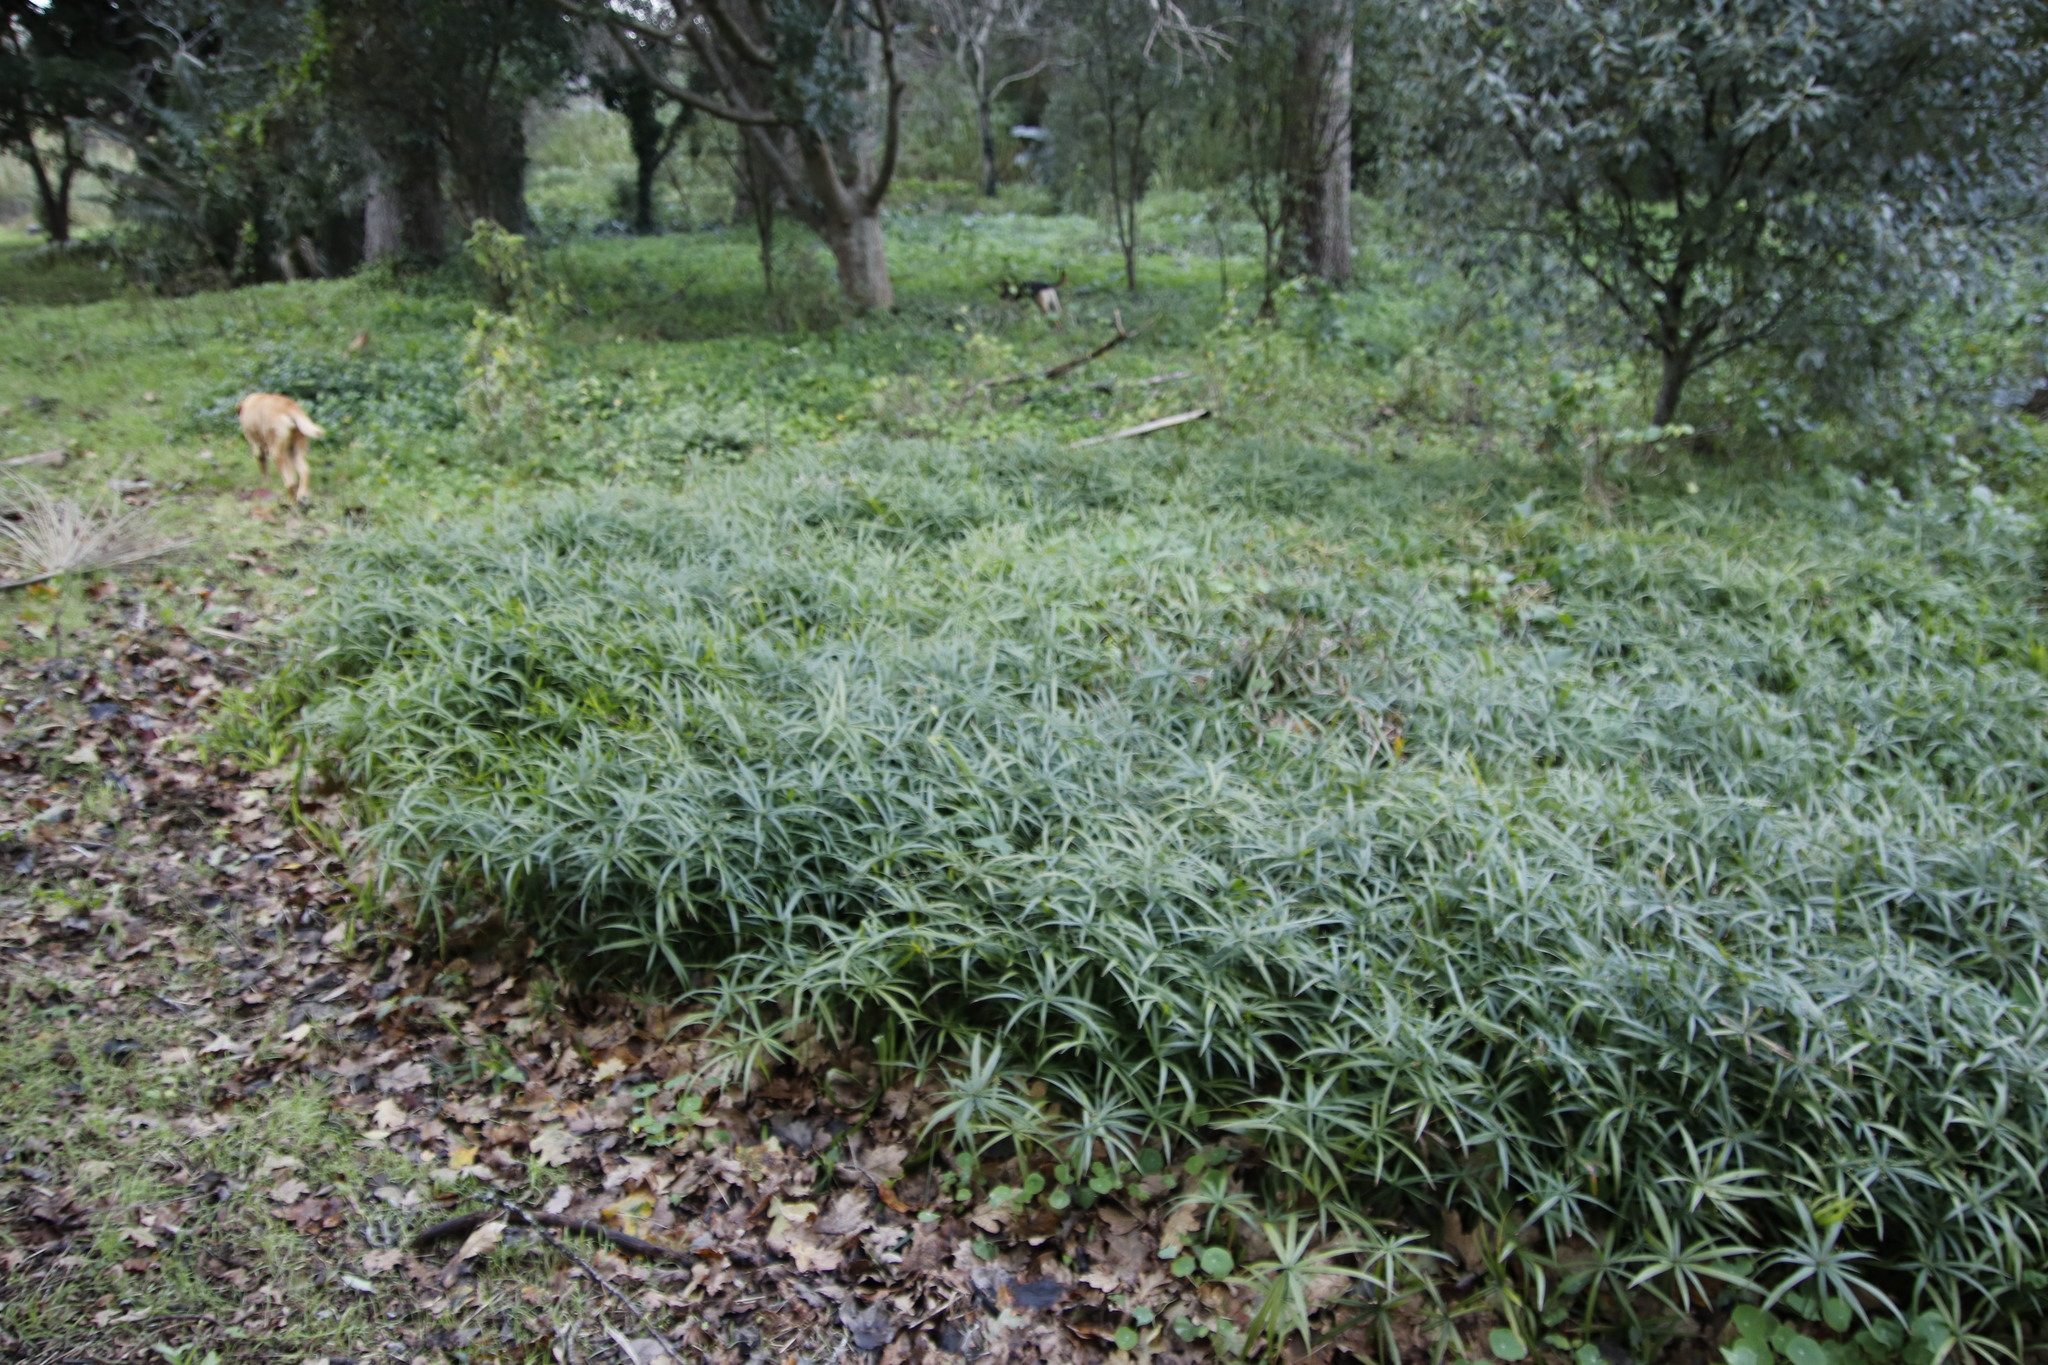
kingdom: Plantae
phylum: Tracheophyta
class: Liliopsida
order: Poales
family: Cyperaceae
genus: Cyperus
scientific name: Cyperus albostriatus
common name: Dwarf umbrella-grass
